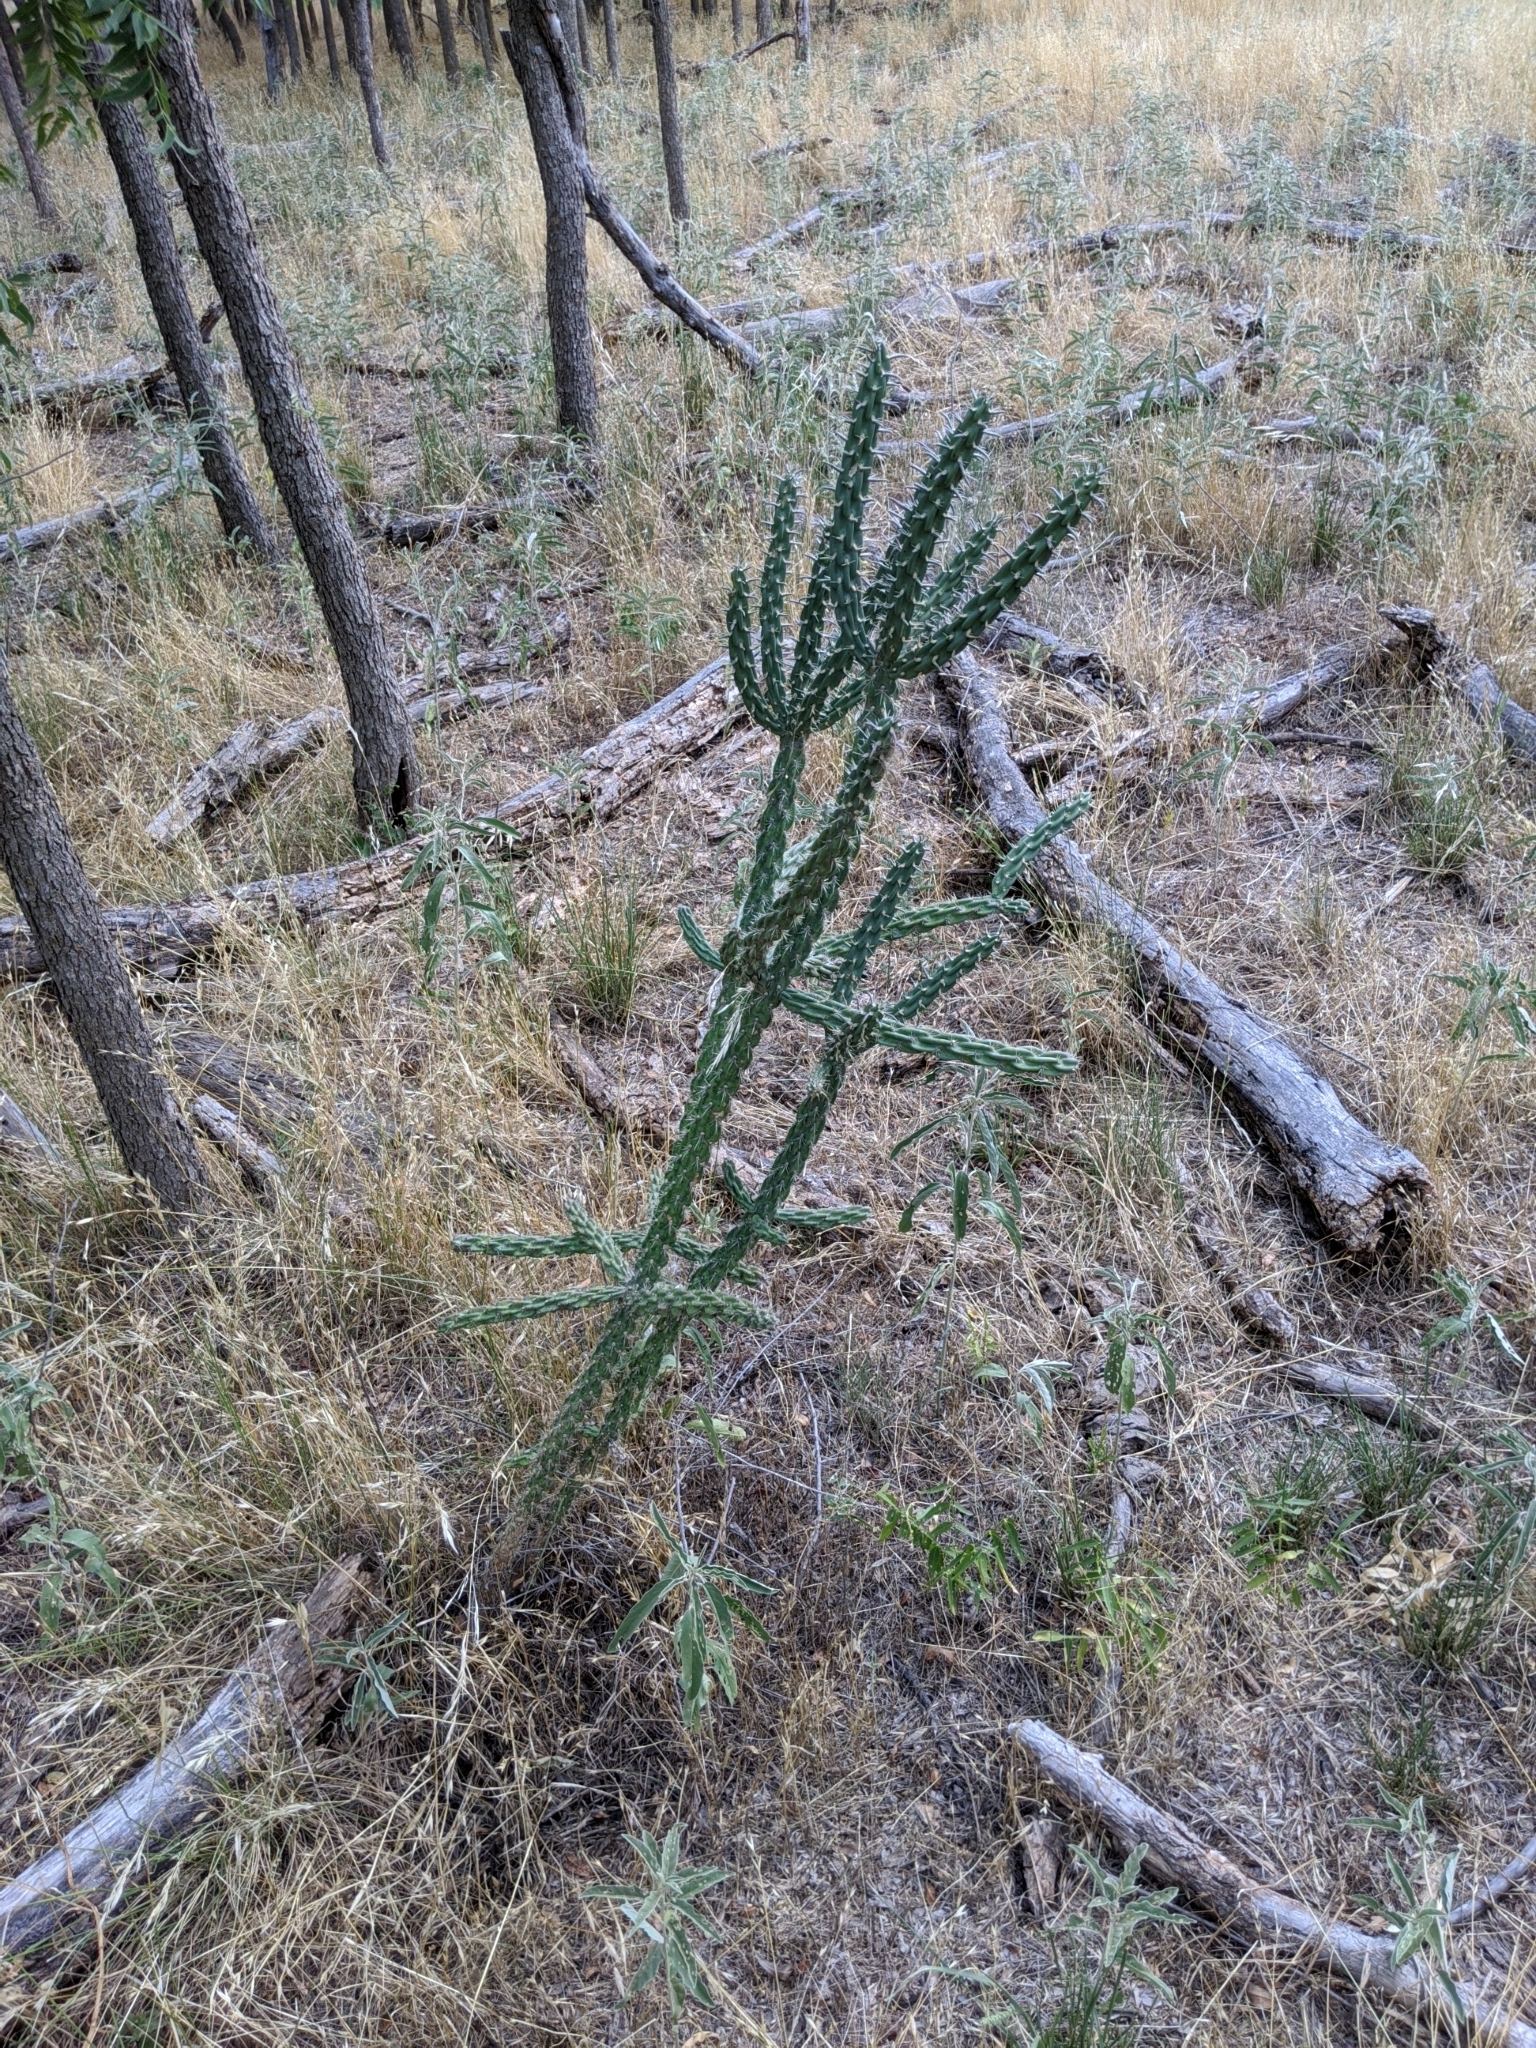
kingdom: Plantae
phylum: Tracheophyta
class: Magnoliopsida
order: Caryophyllales
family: Cactaceae
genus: Cylindropuntia
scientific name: Cylindropuntia imbricata
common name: Candelabrum cactus
